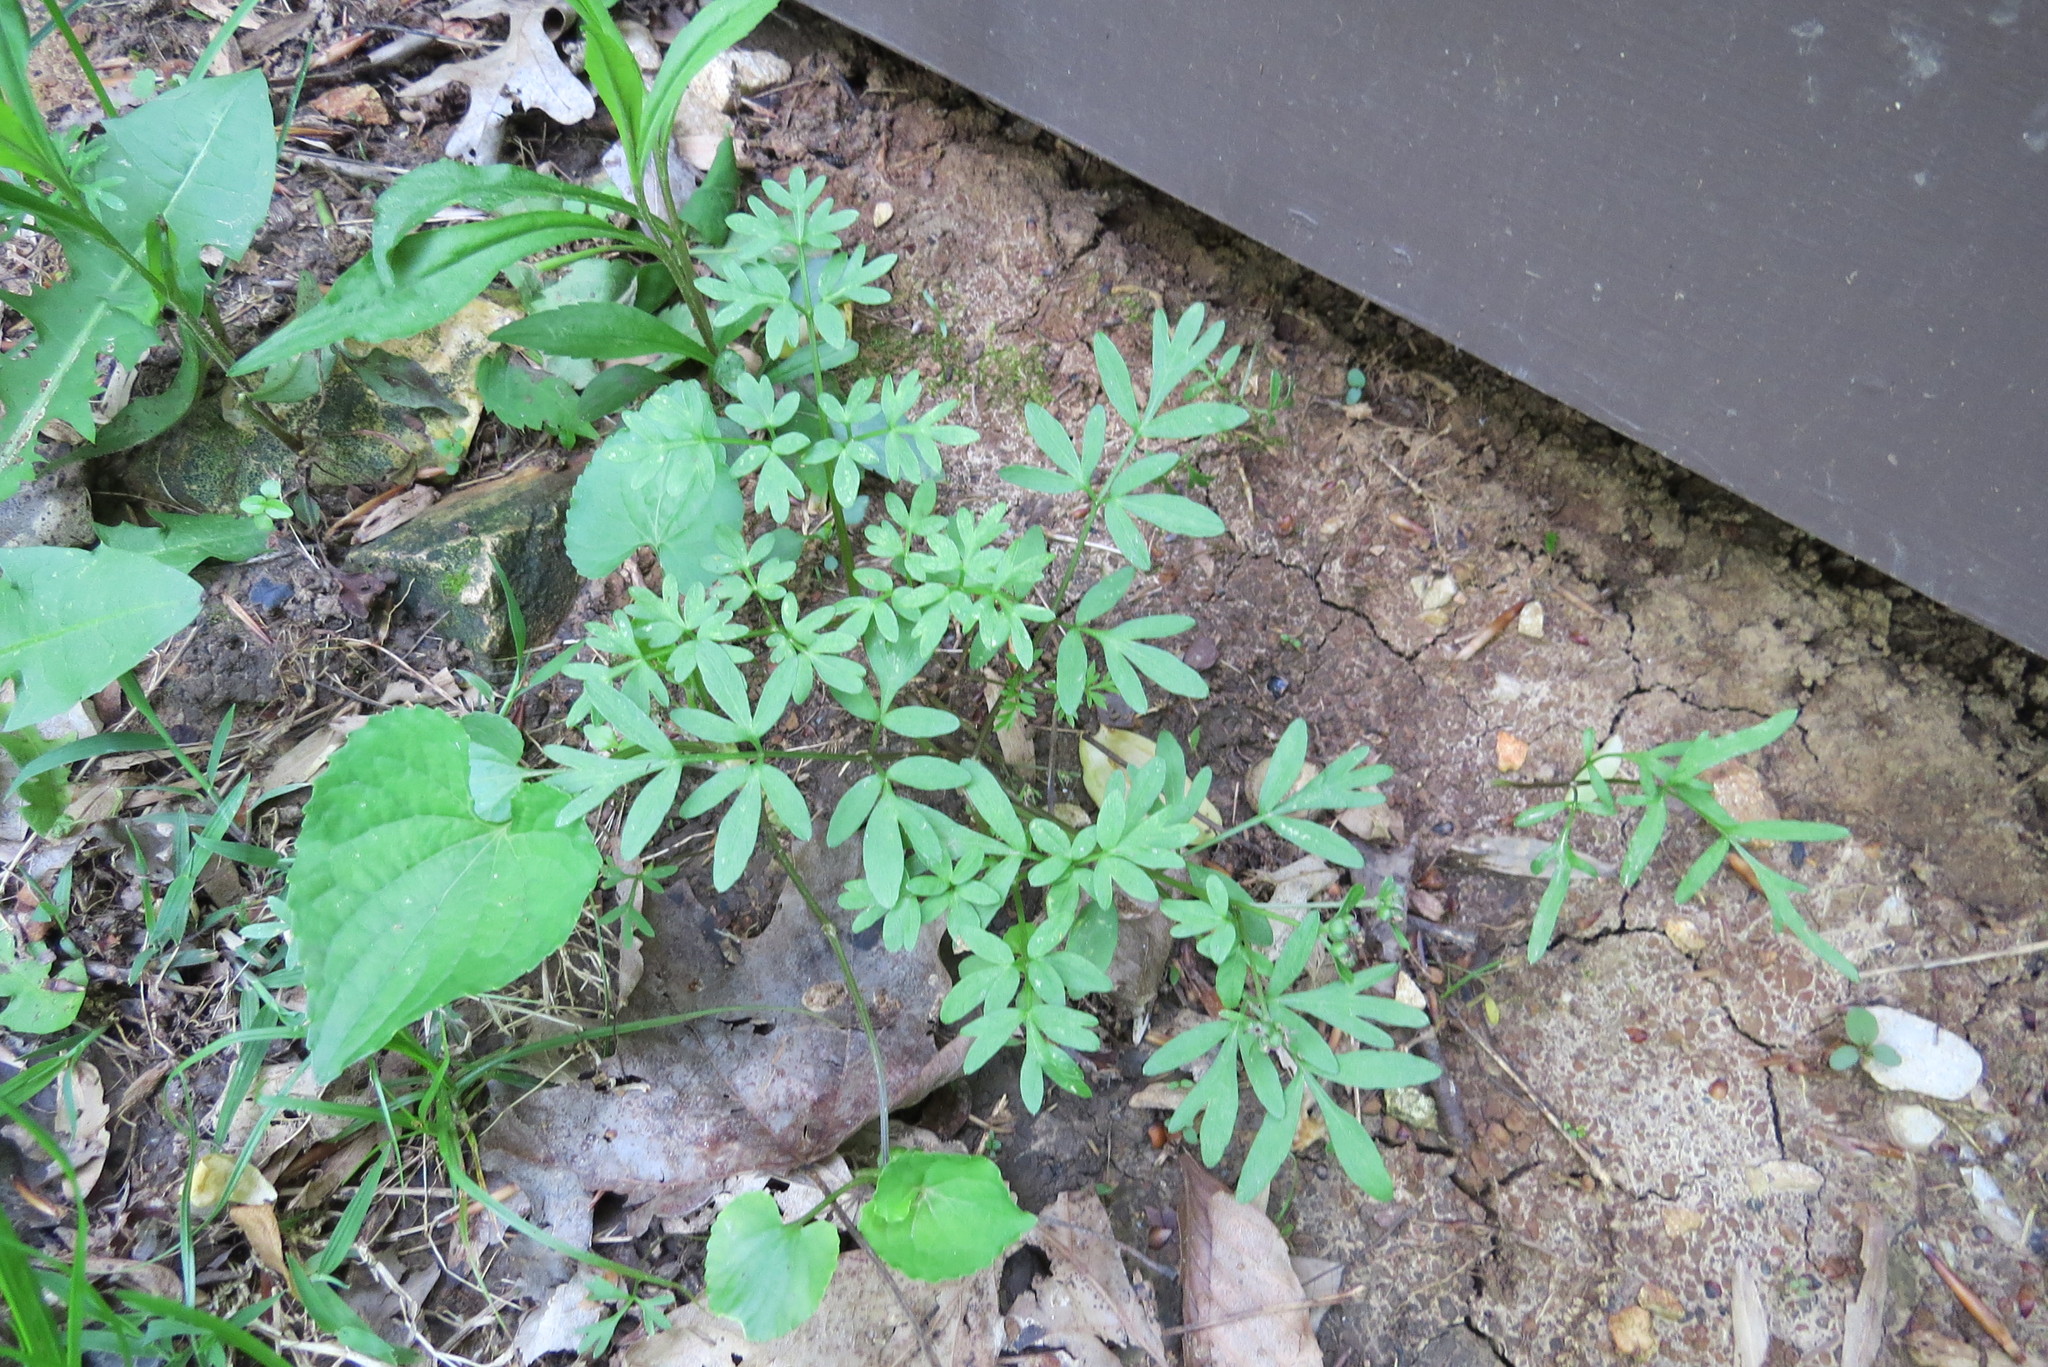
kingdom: Plantae
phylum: Tracheophyta
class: Magnoliopsida
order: Brassicales
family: Limnanthaceae
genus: Floerkea
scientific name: Floerkea proserpinacoides
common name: False mermaid
